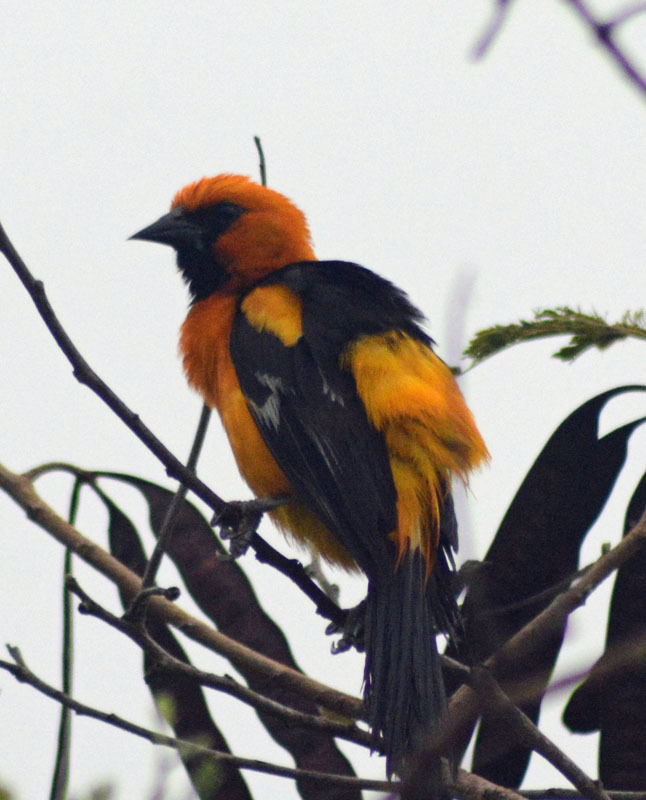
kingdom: Animalia
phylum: Chordata
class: Aves
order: Passeriformes
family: Icteridae
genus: Icterus
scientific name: Icterus gularis
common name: Altamira oriole
